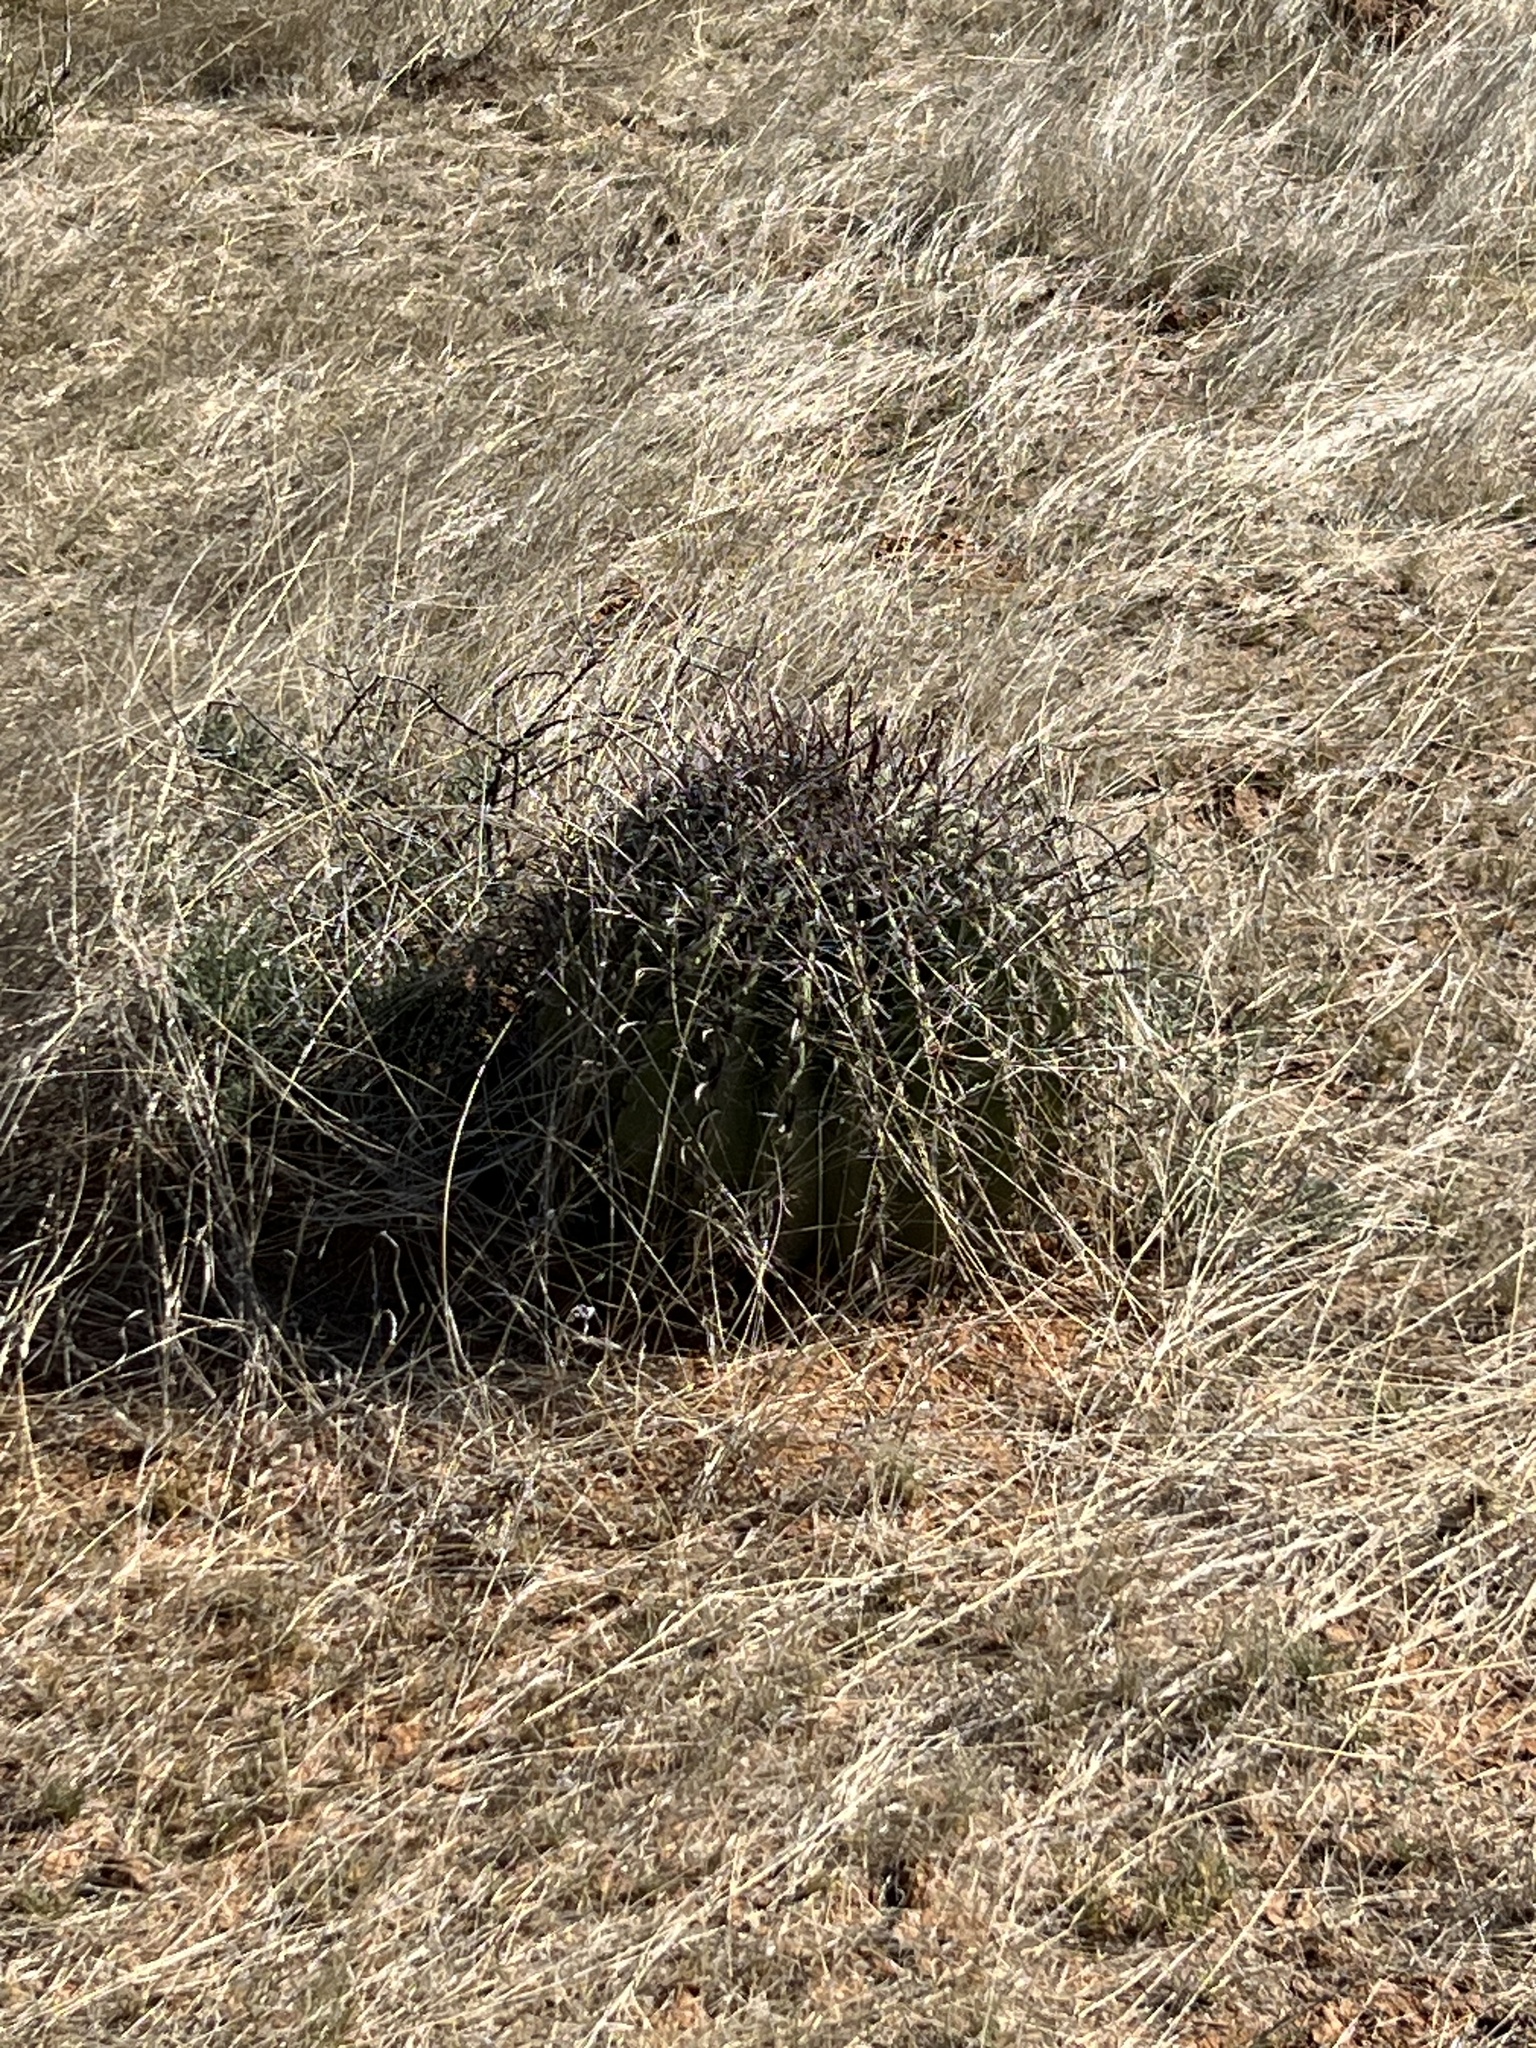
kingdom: Plantae
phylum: Tracheophyta
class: Magnoliopsida
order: Caryophyllales
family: Cactaceae
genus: Ferocactus
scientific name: Ferocactus wislizeni
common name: Candy barrel cactus
